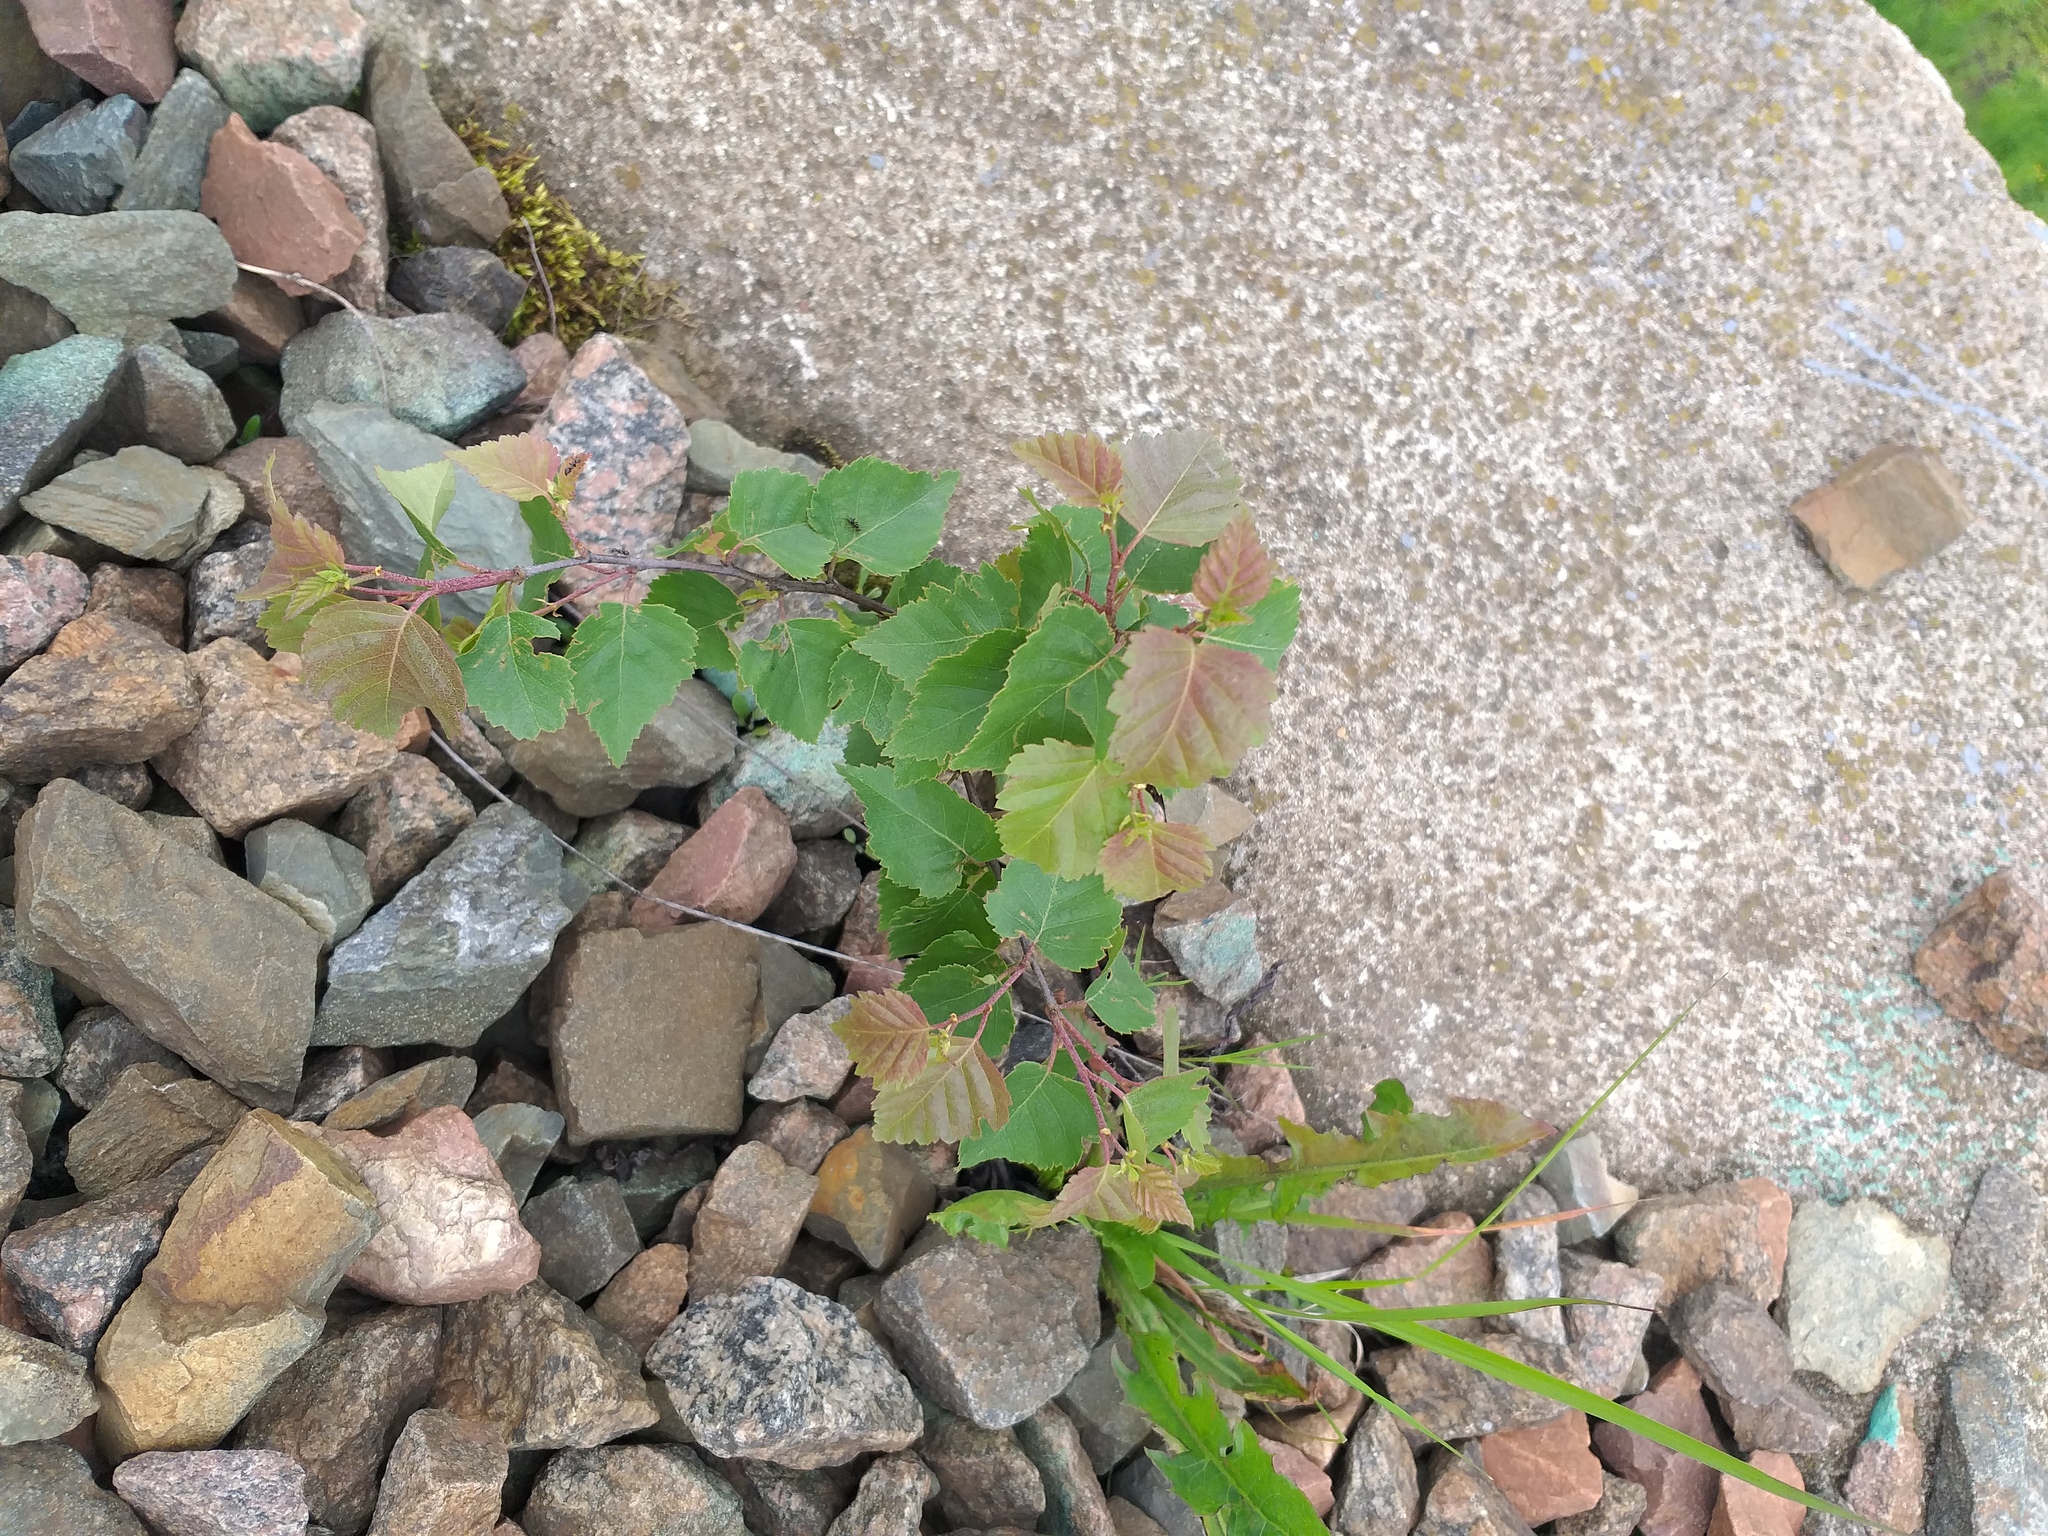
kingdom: Plantae
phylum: Tracheophyta
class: Magnoliopsida
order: Fagales
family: Betulaceae
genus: Betula
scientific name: Betula pendula
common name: Silver birch
